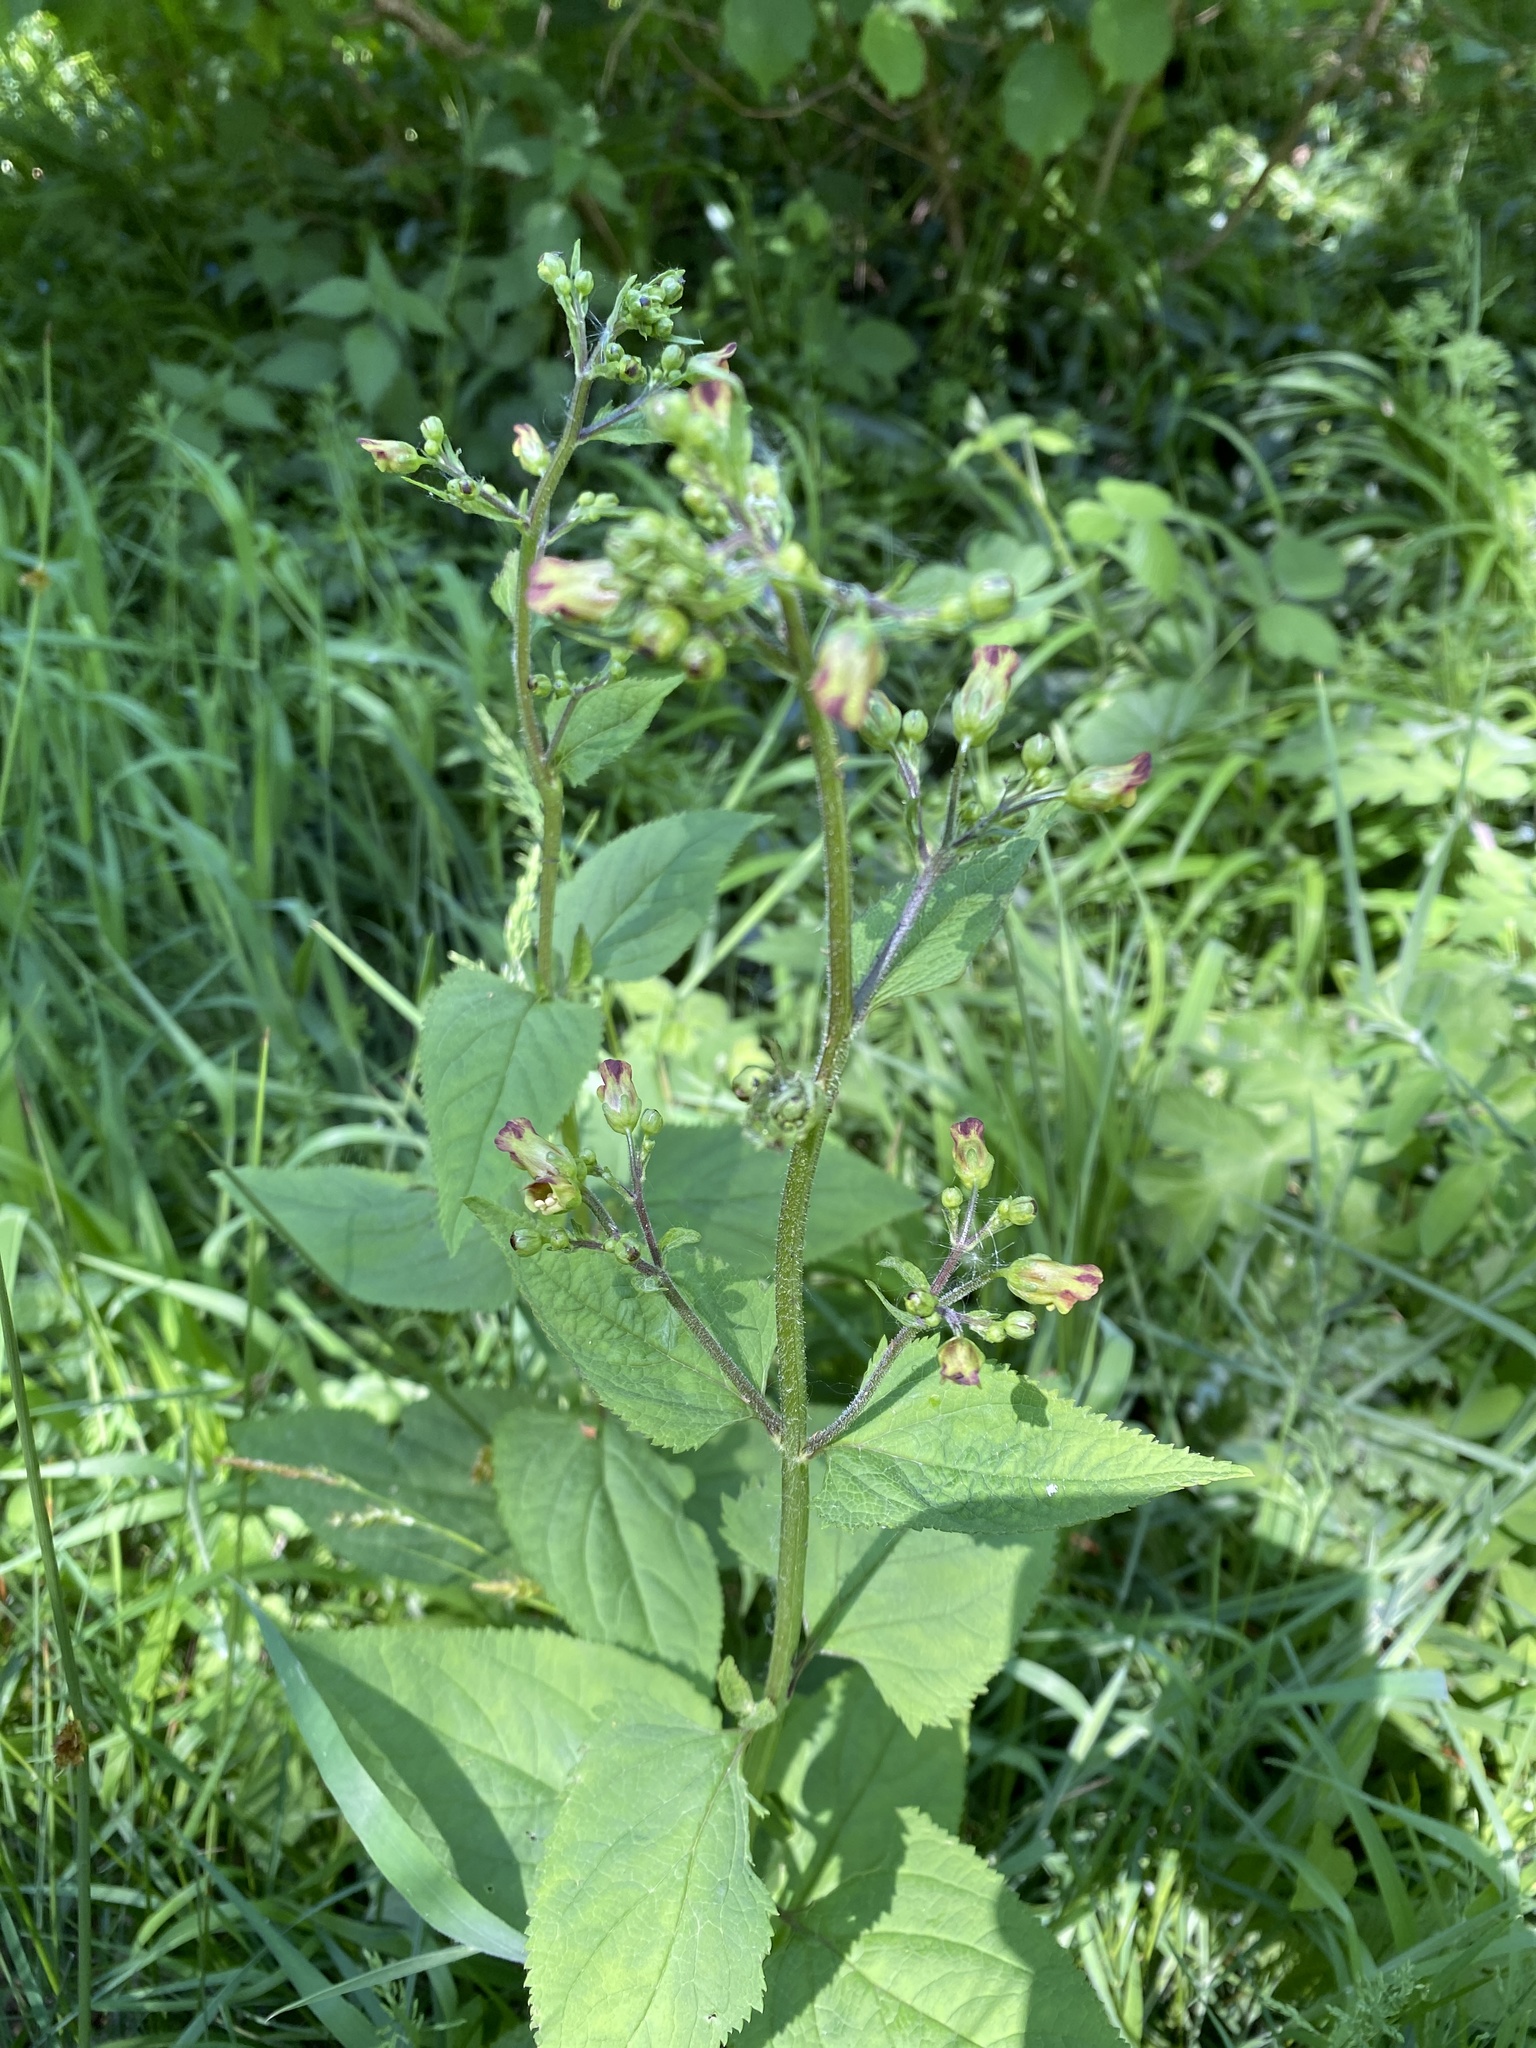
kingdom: Plantae
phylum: Tracheophyta
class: Magnoliopsida
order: Lamiales
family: Scrophulariaceae
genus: Scrophularia
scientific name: Scrophularia nodosa
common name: Common figwort
